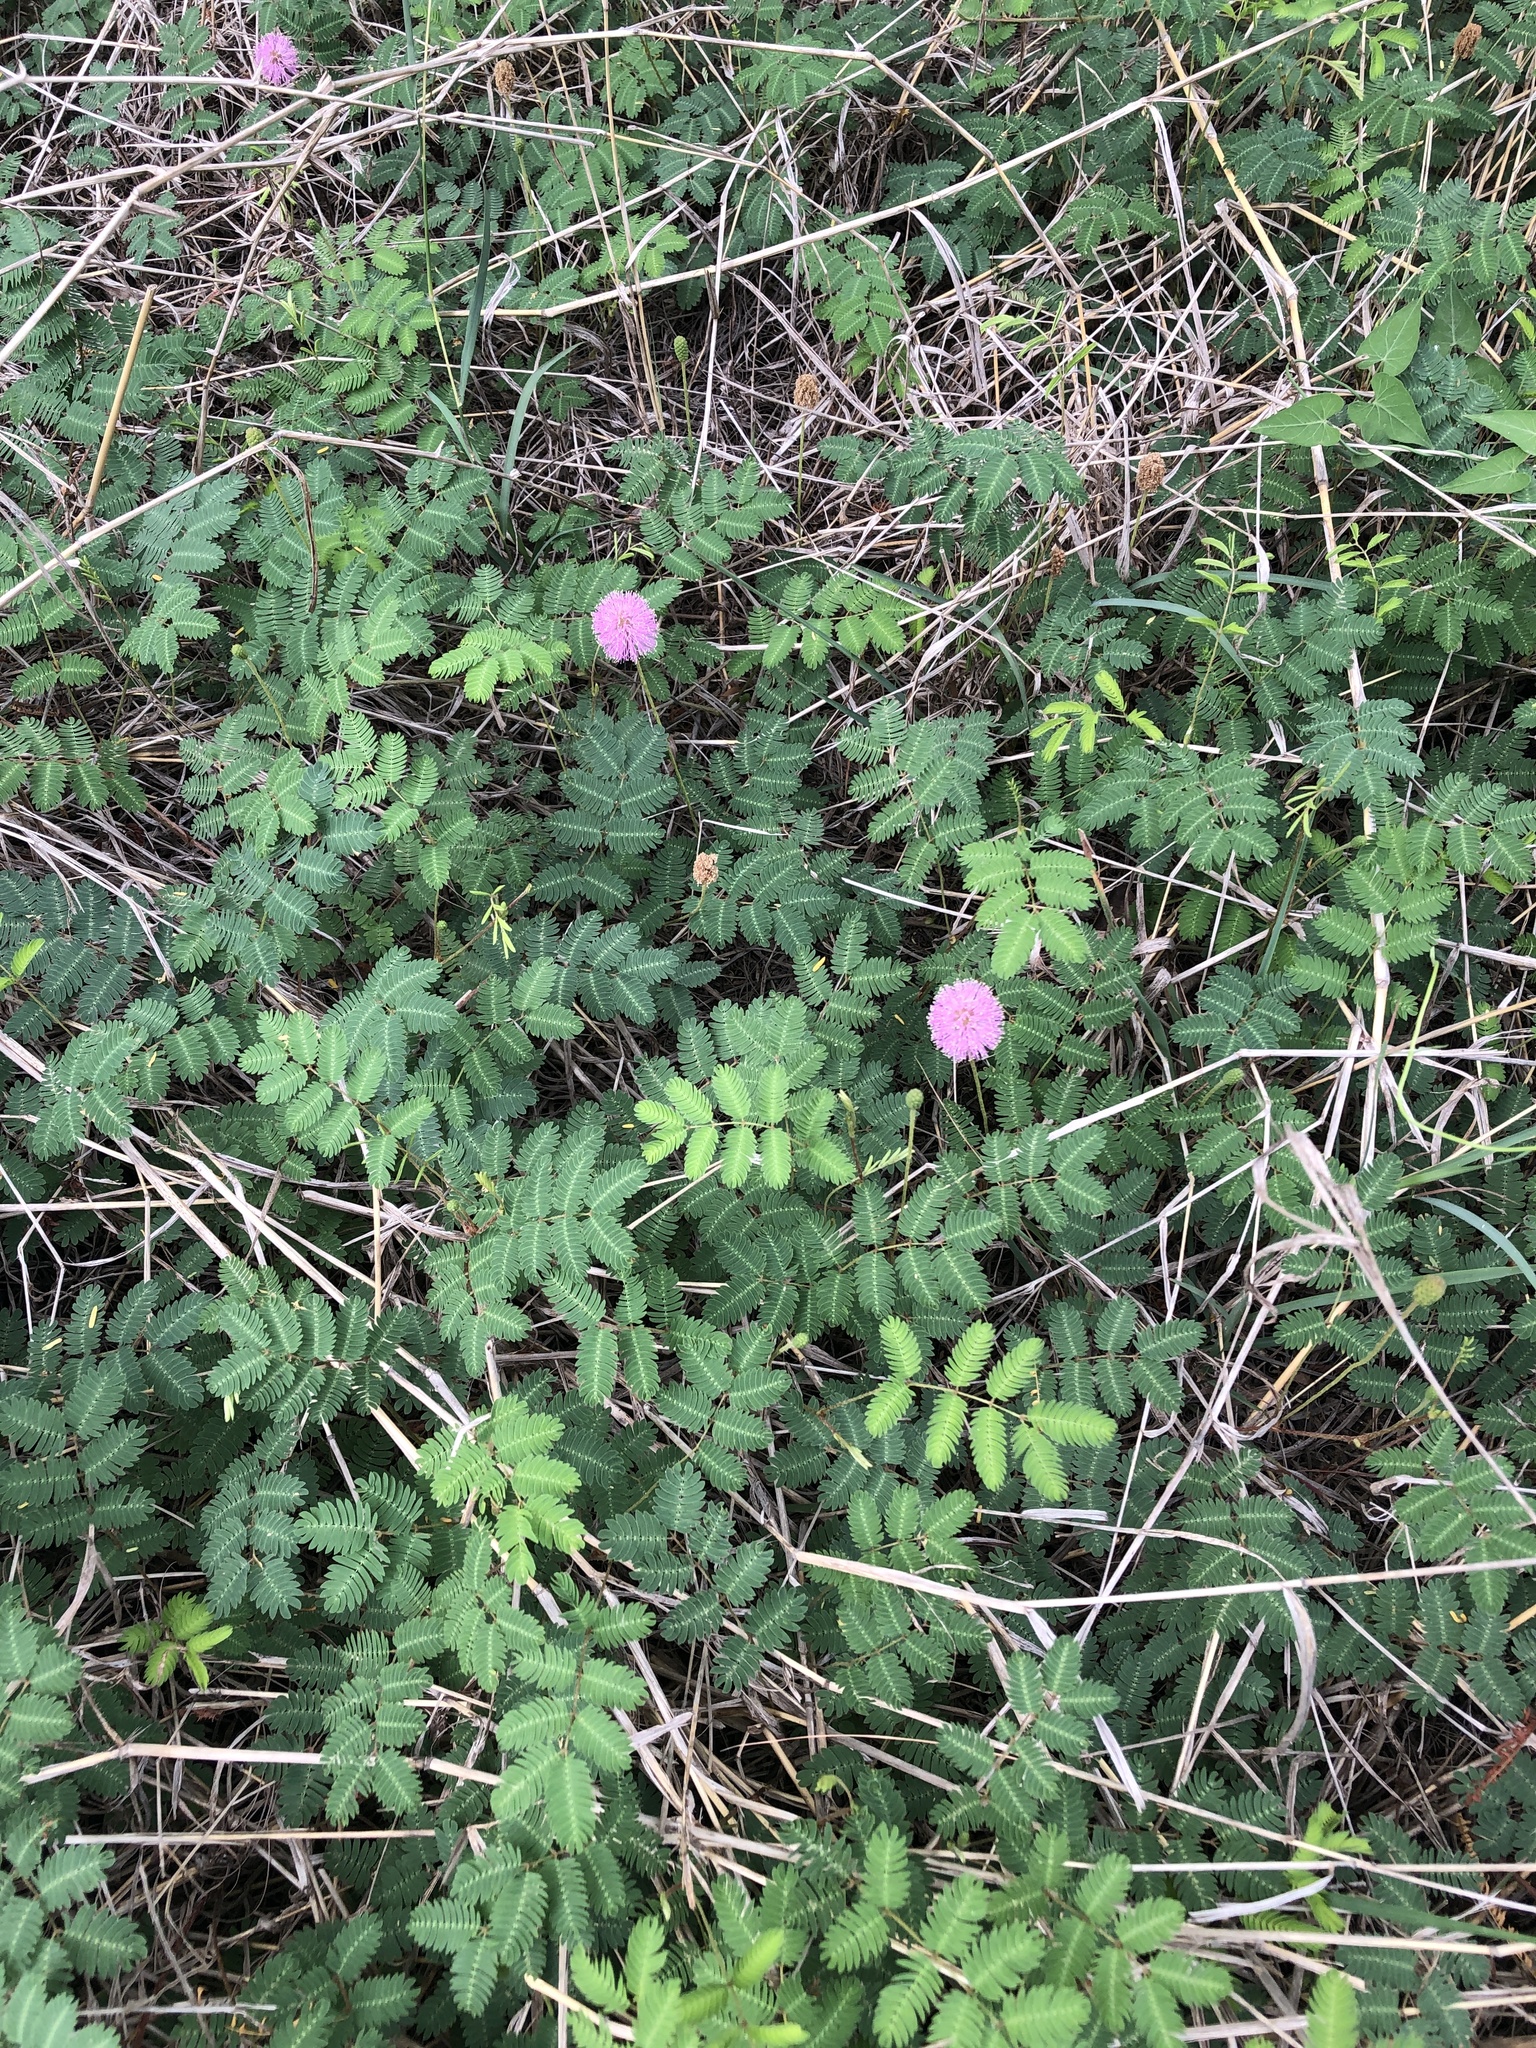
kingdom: Plantae
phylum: Tracheophyta
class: Magnoliopsida
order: Fabales
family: Fabaceae
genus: Mimosa
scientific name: Mimosa strigillosa
